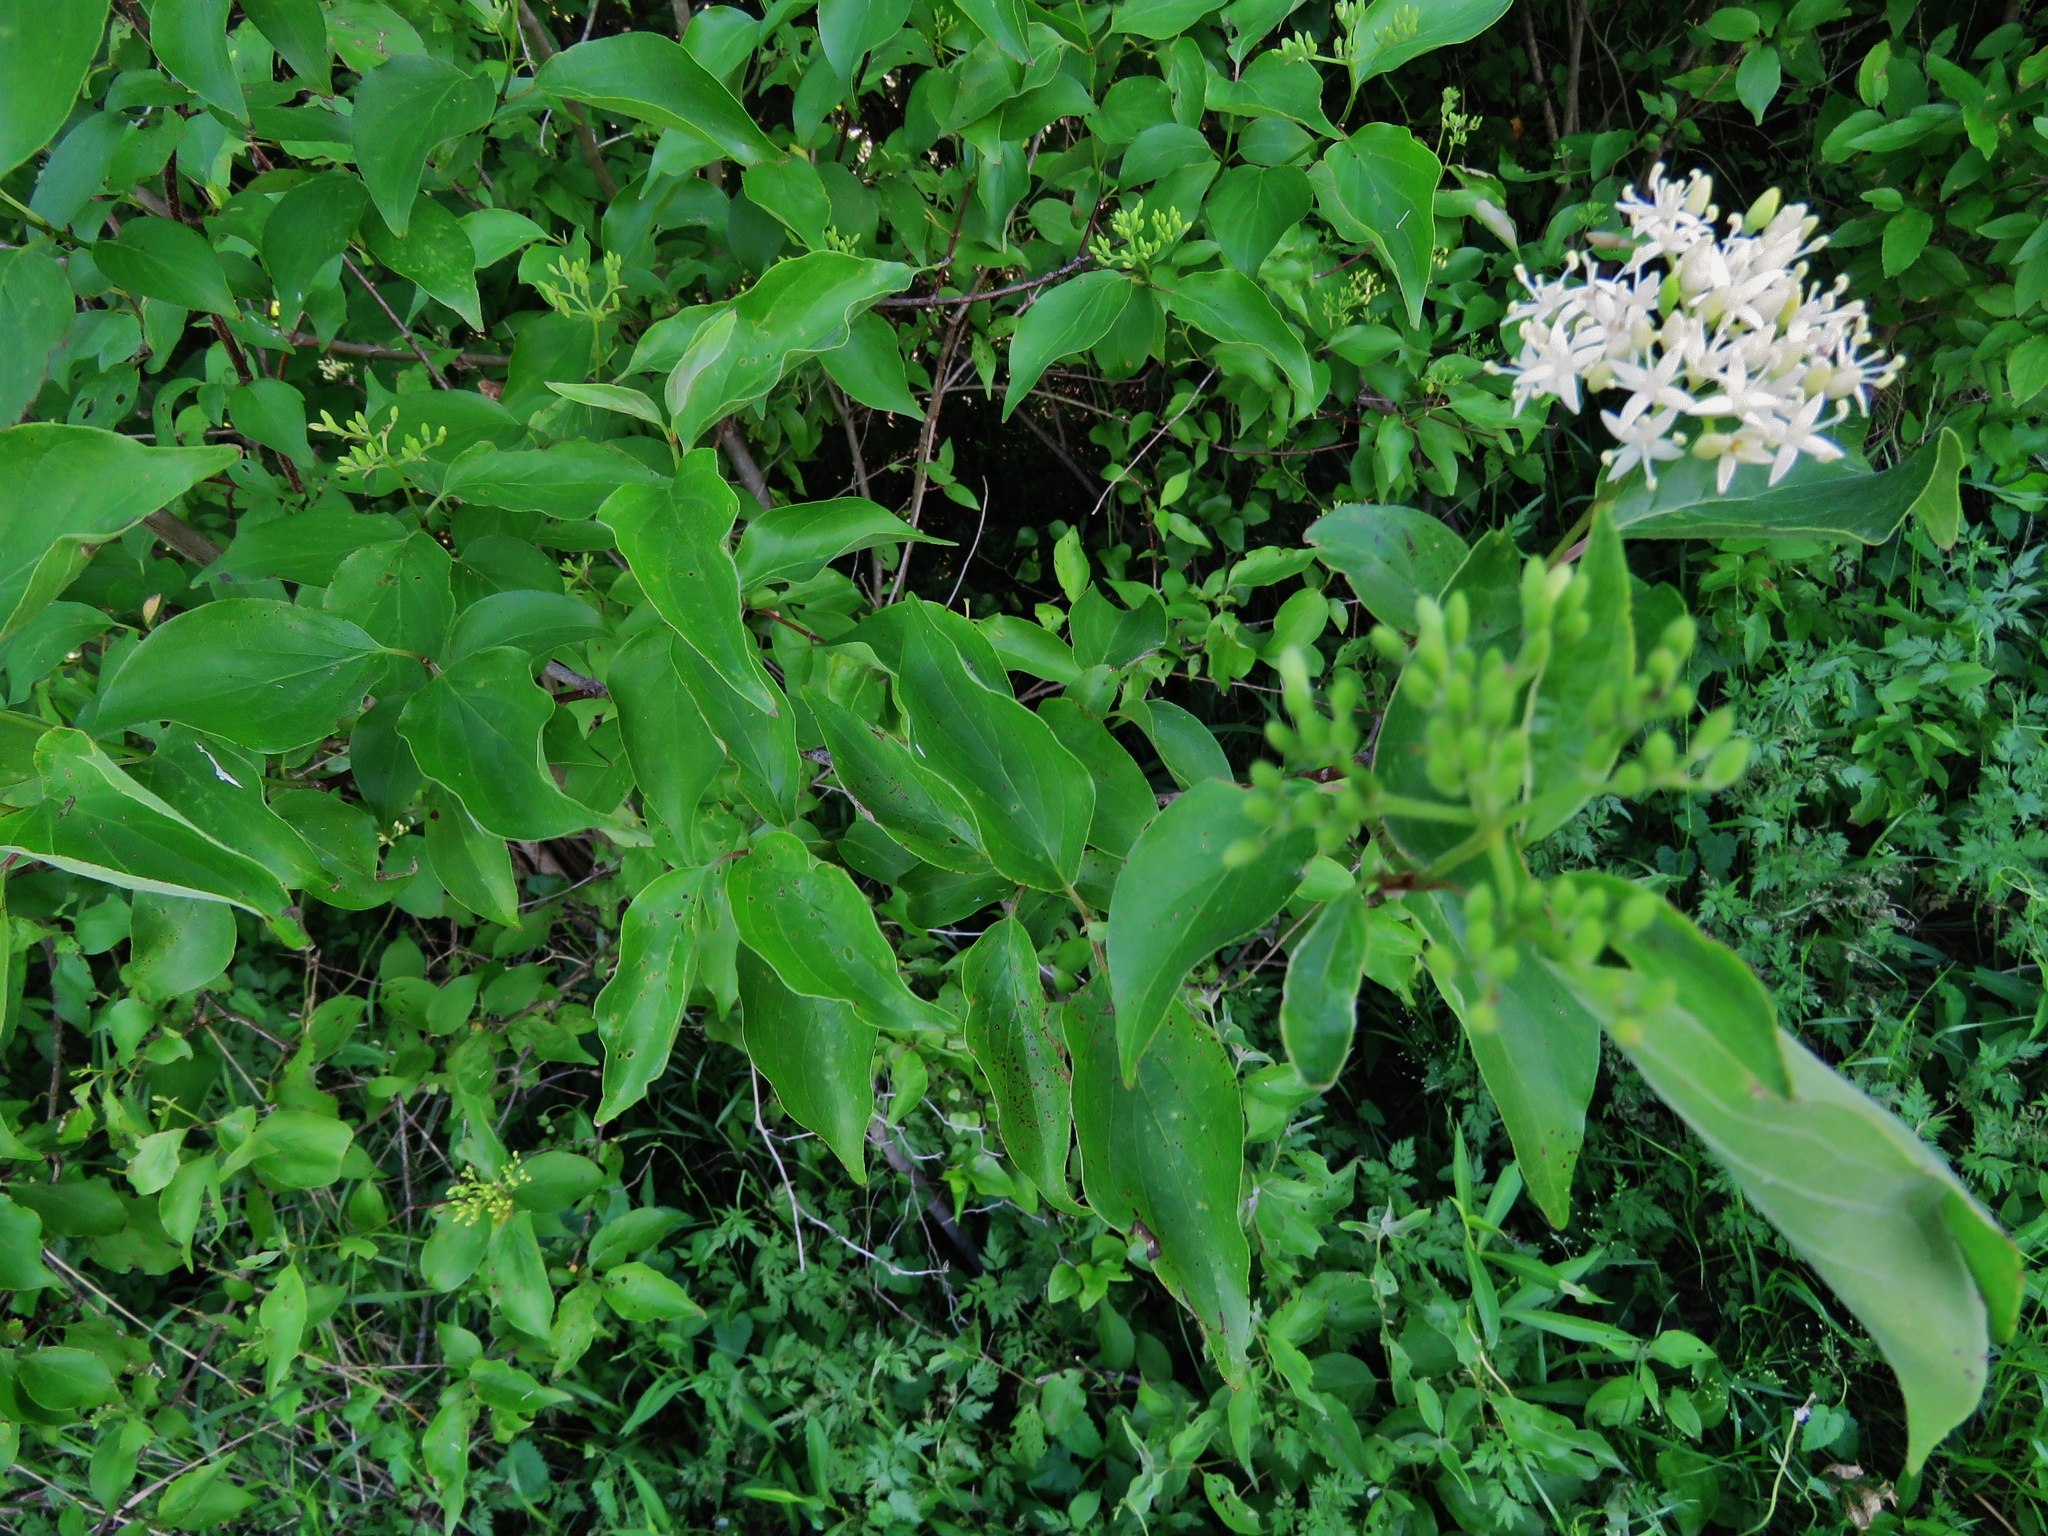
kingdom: Plantae
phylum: Tracheophyta
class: Magnoliopsida
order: Cornales
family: Cornaceae
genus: Cornus
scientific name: Cornus drummondii
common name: Rough-leaf dogwood
